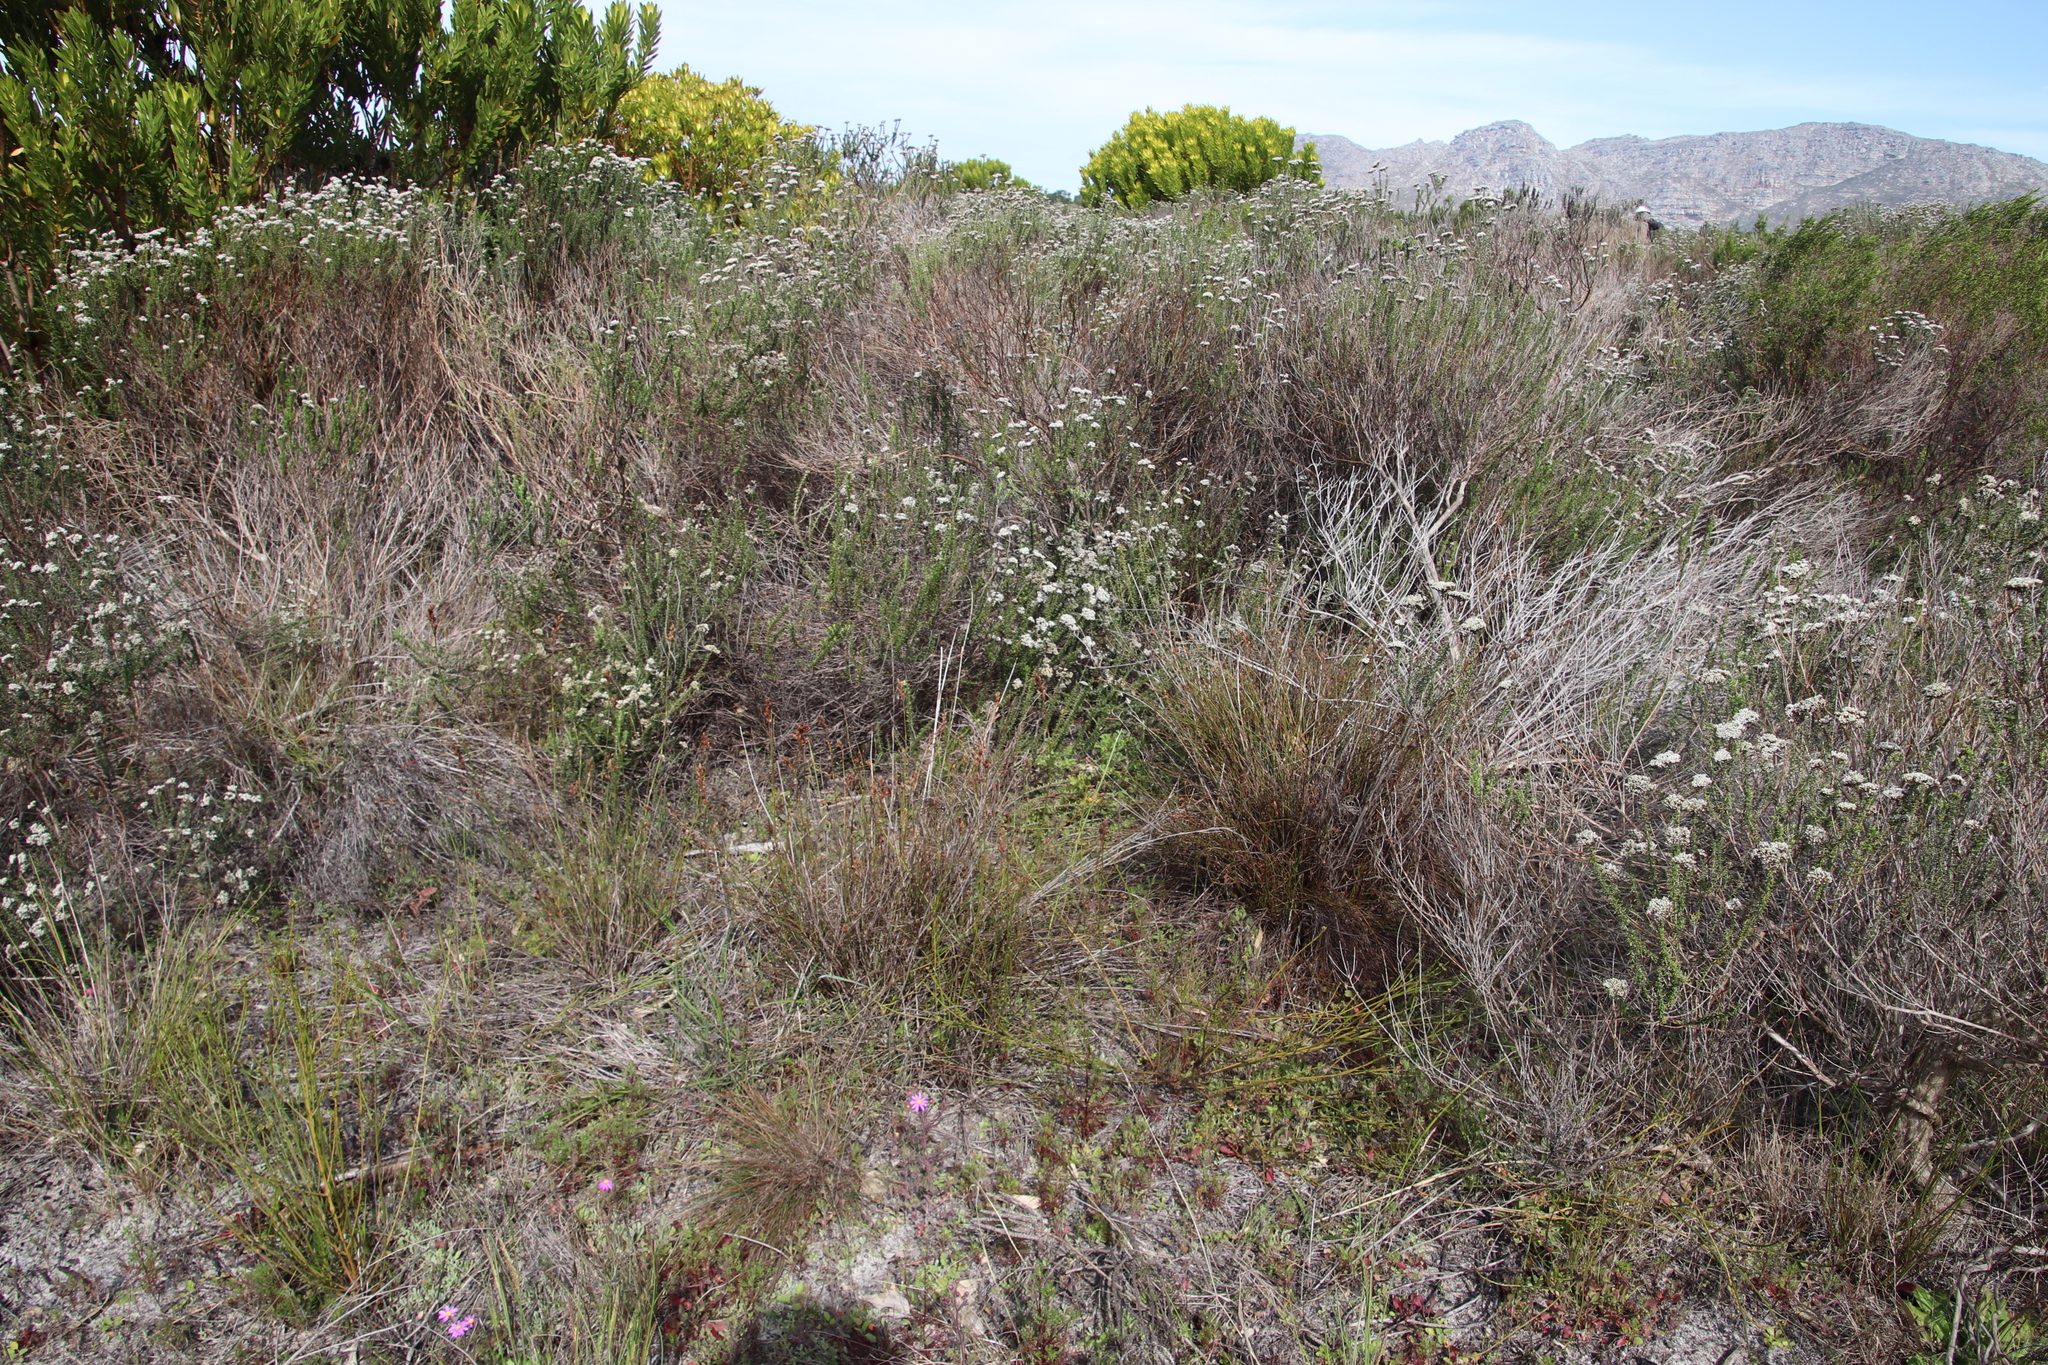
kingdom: Plantae
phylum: Tracheophyta
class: Liliopsida
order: Poales
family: Restionaceae
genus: Restio
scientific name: Restio bifurcus
